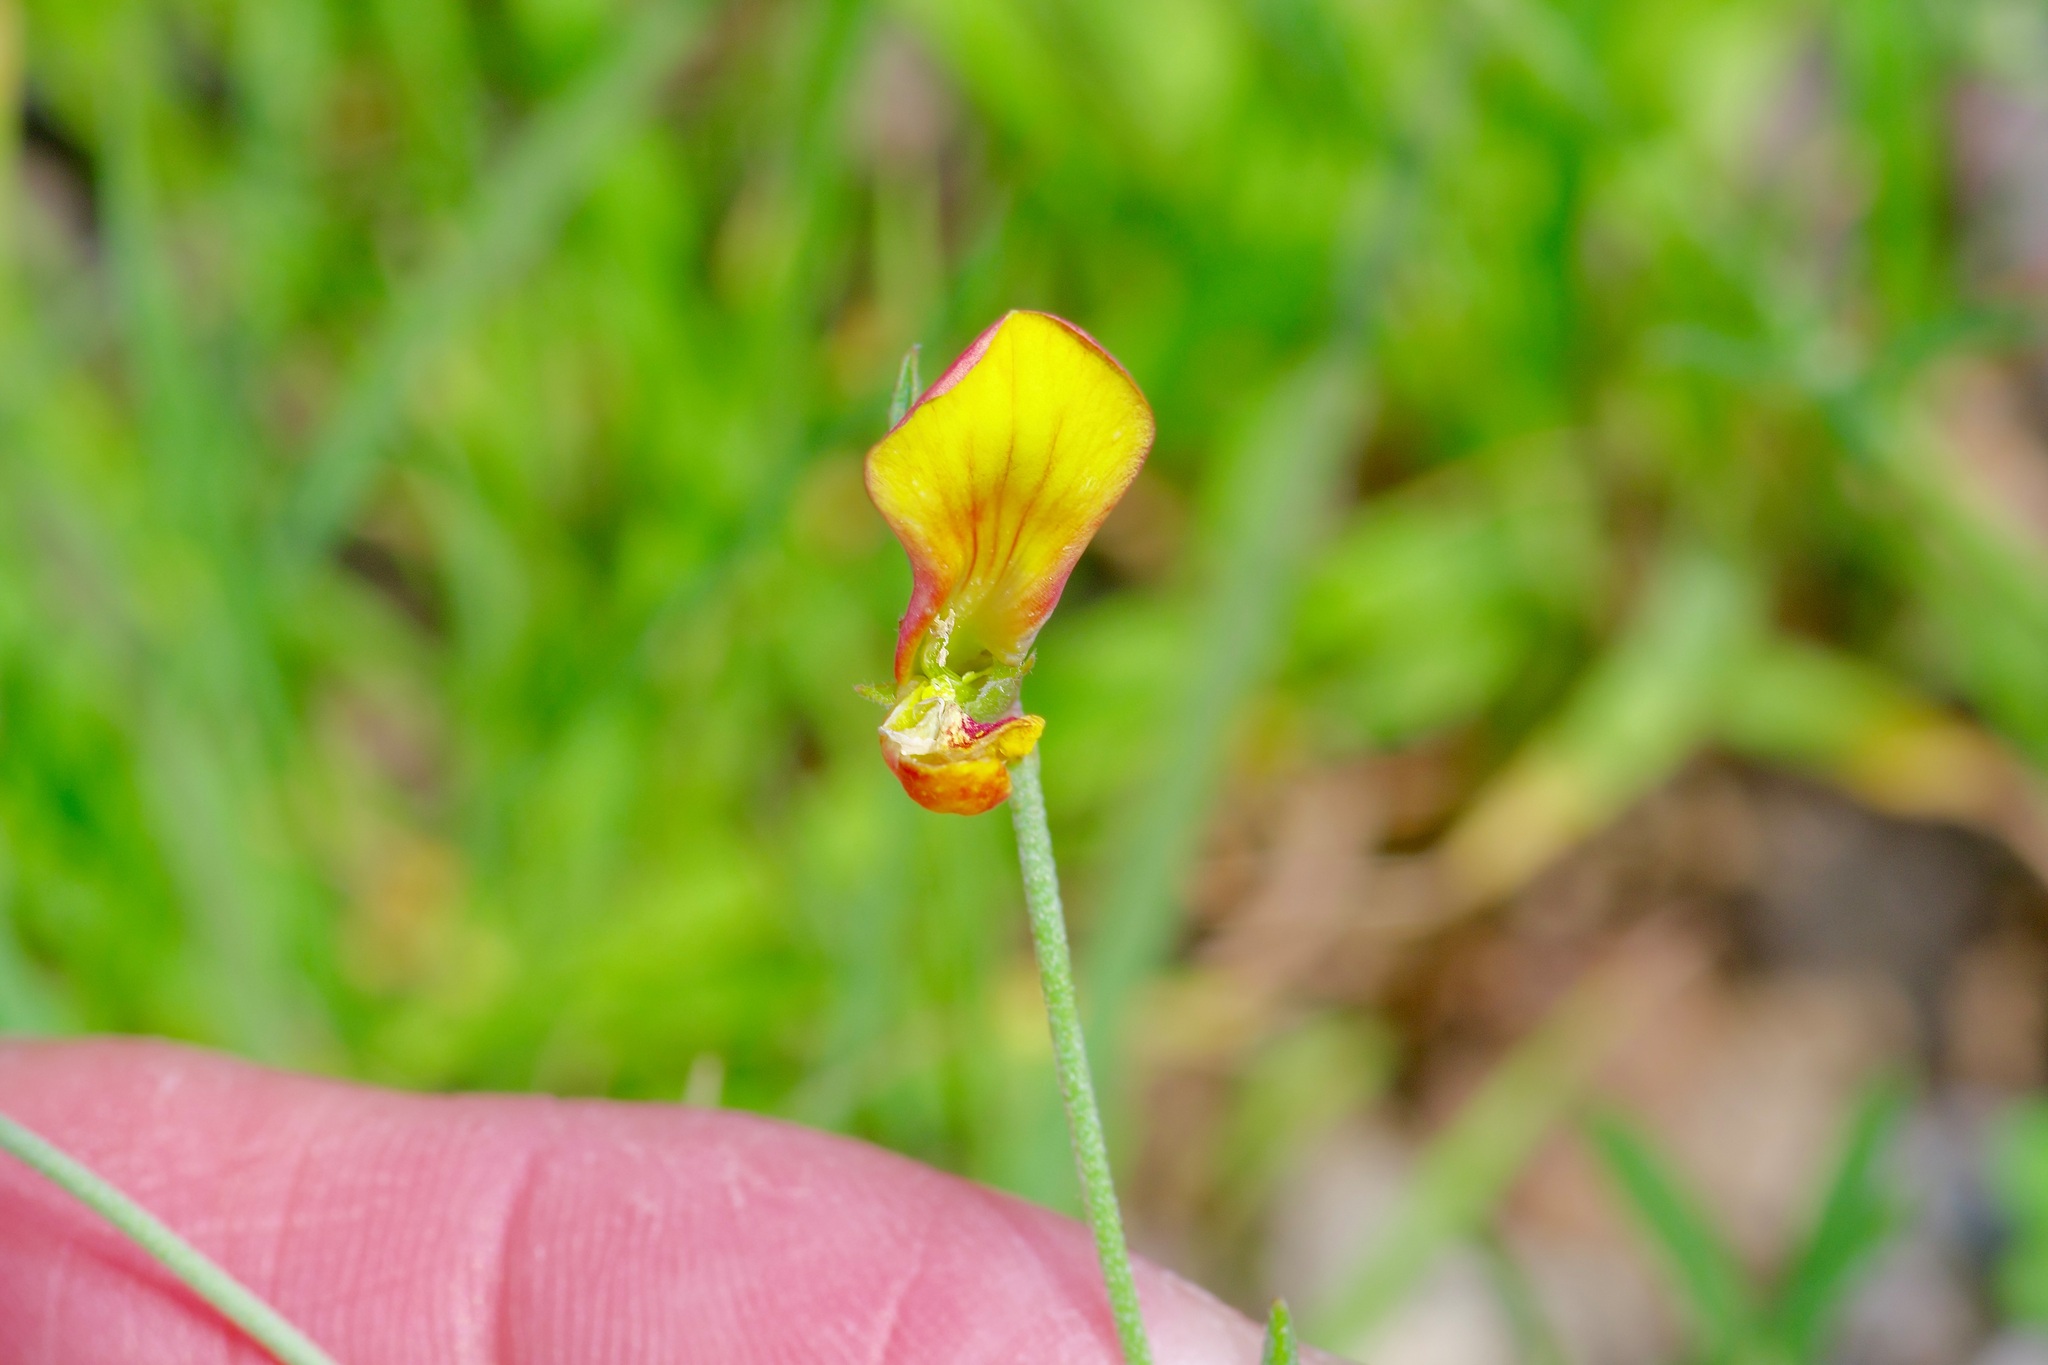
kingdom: Plantae
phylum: Tracheophyta
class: Magnoliopsida
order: Fabales
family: Fabaceae
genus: Acmispon
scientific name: Acmispon oroboides
